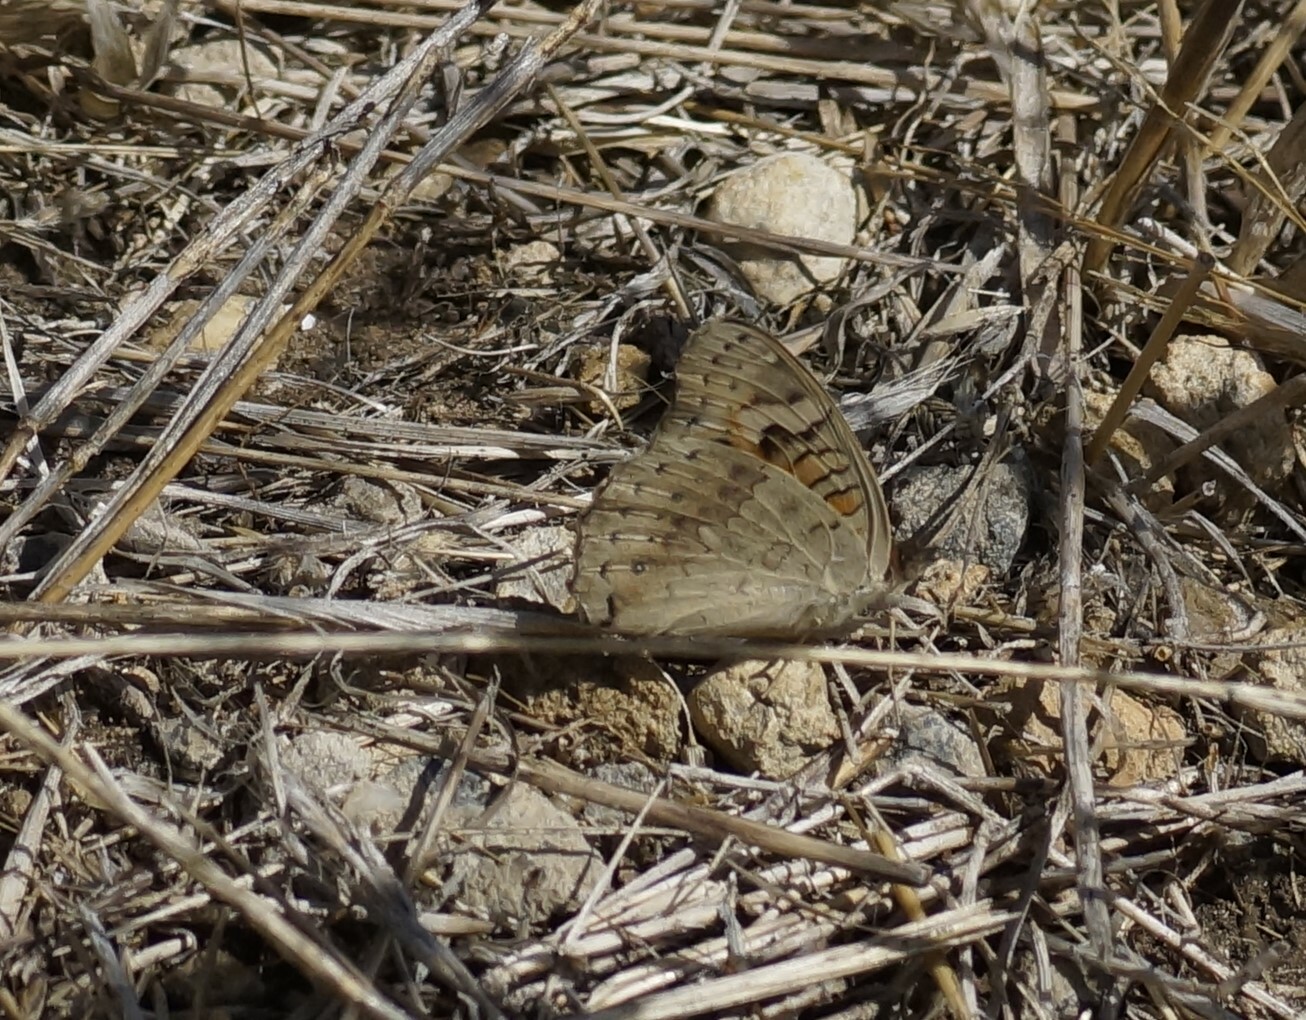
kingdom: Animalia
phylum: Arthropoda
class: Insecta
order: Lepidoptera
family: Nymphalidae
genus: Junonia
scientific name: Junonia villida
